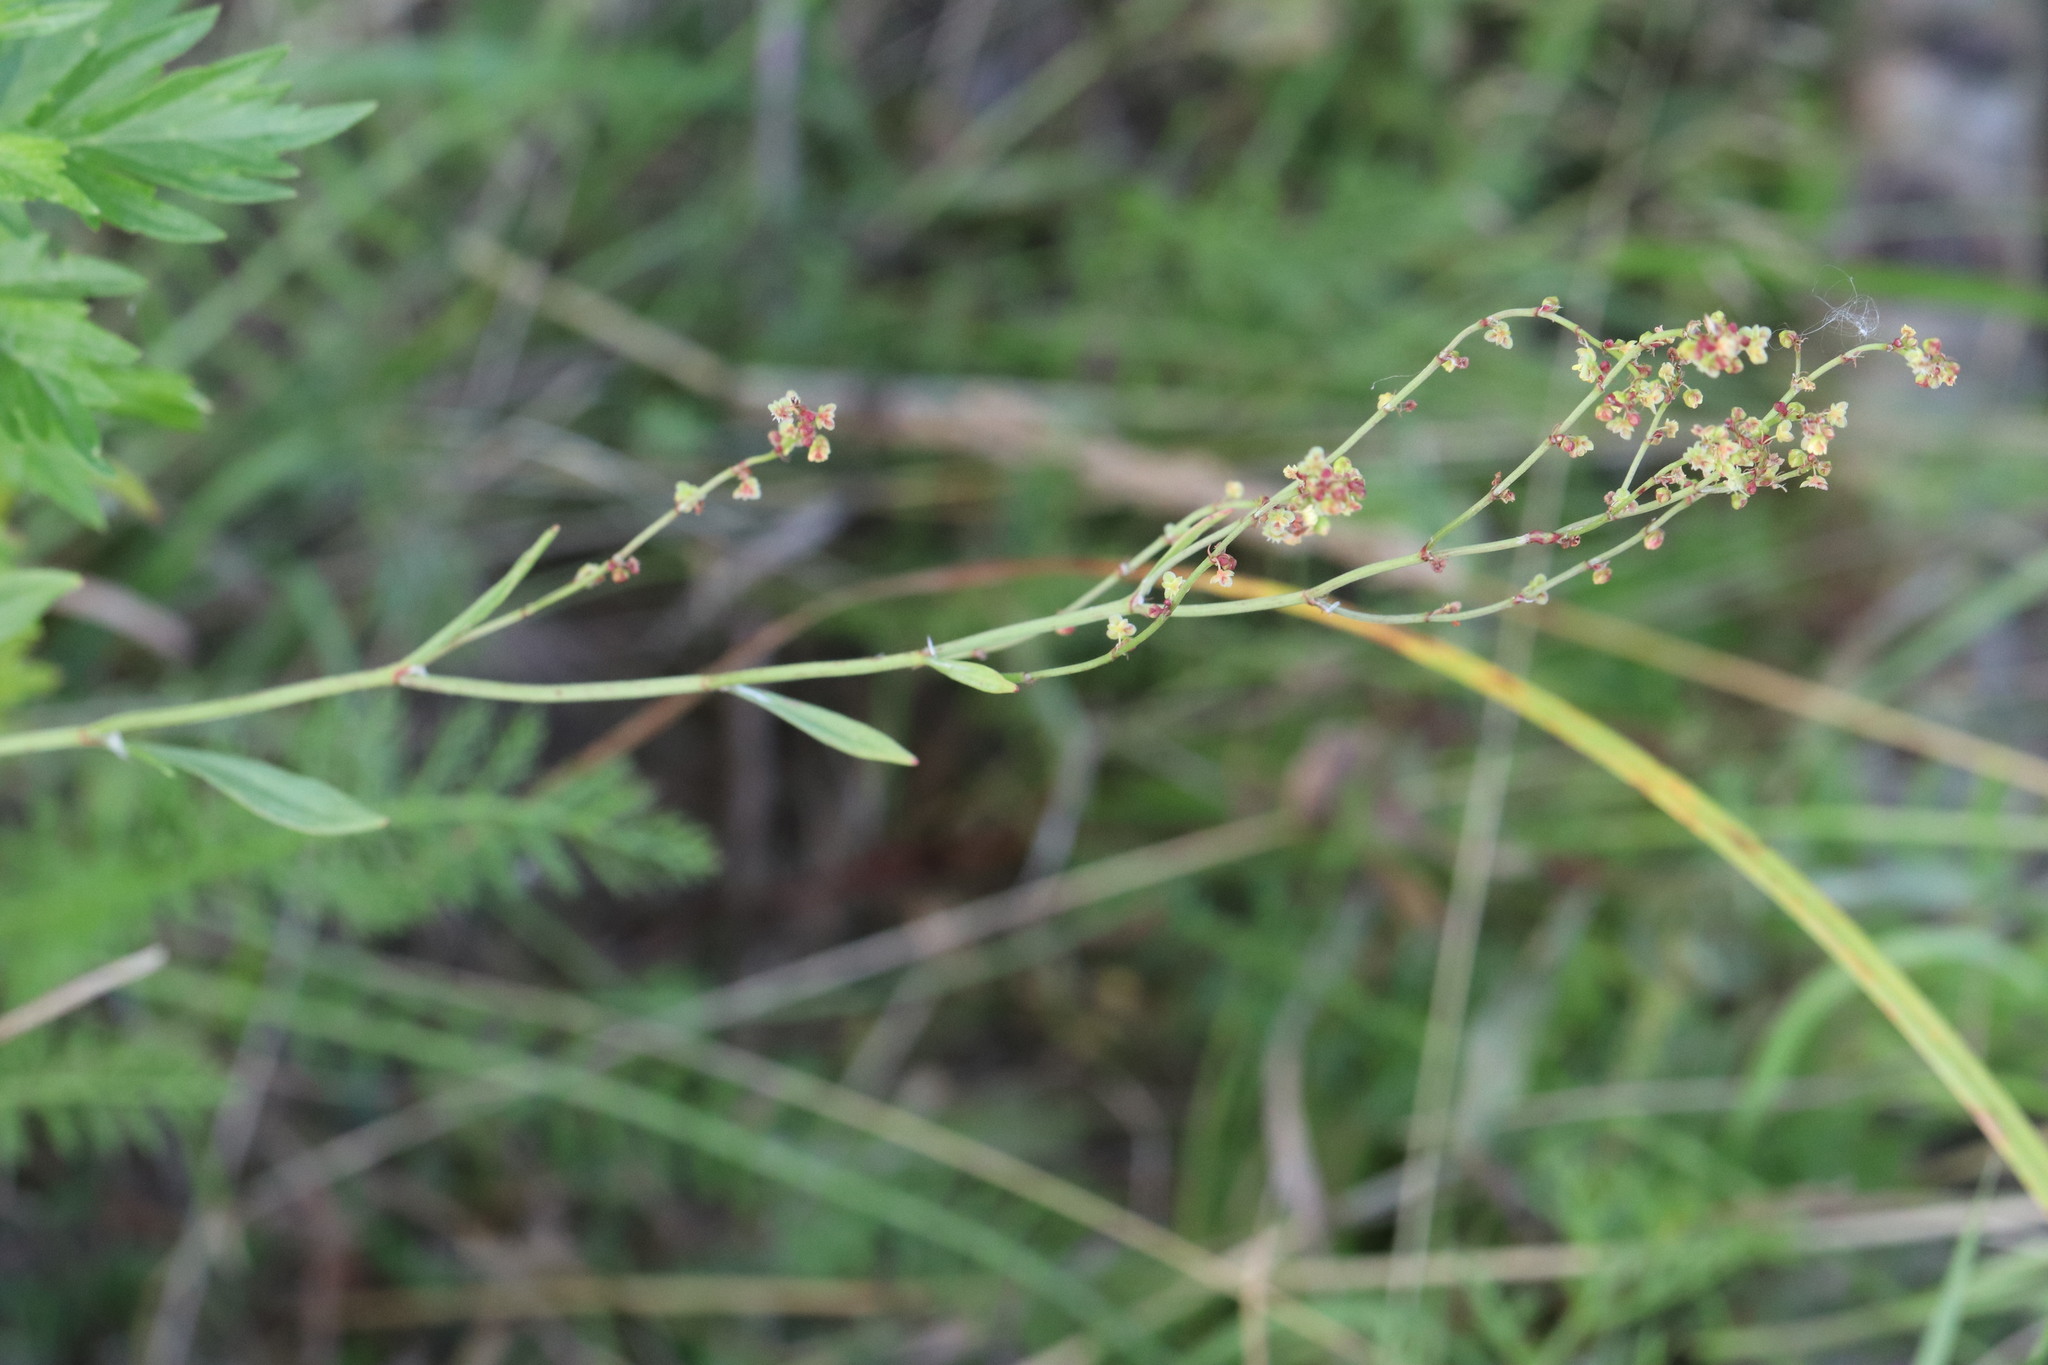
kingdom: Plantae
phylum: Tracheophyta
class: Magnoliopsida
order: Caryophyllales
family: Polygonaceae
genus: Rumex
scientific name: Rumex acetosella
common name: Common sheep sorrel
